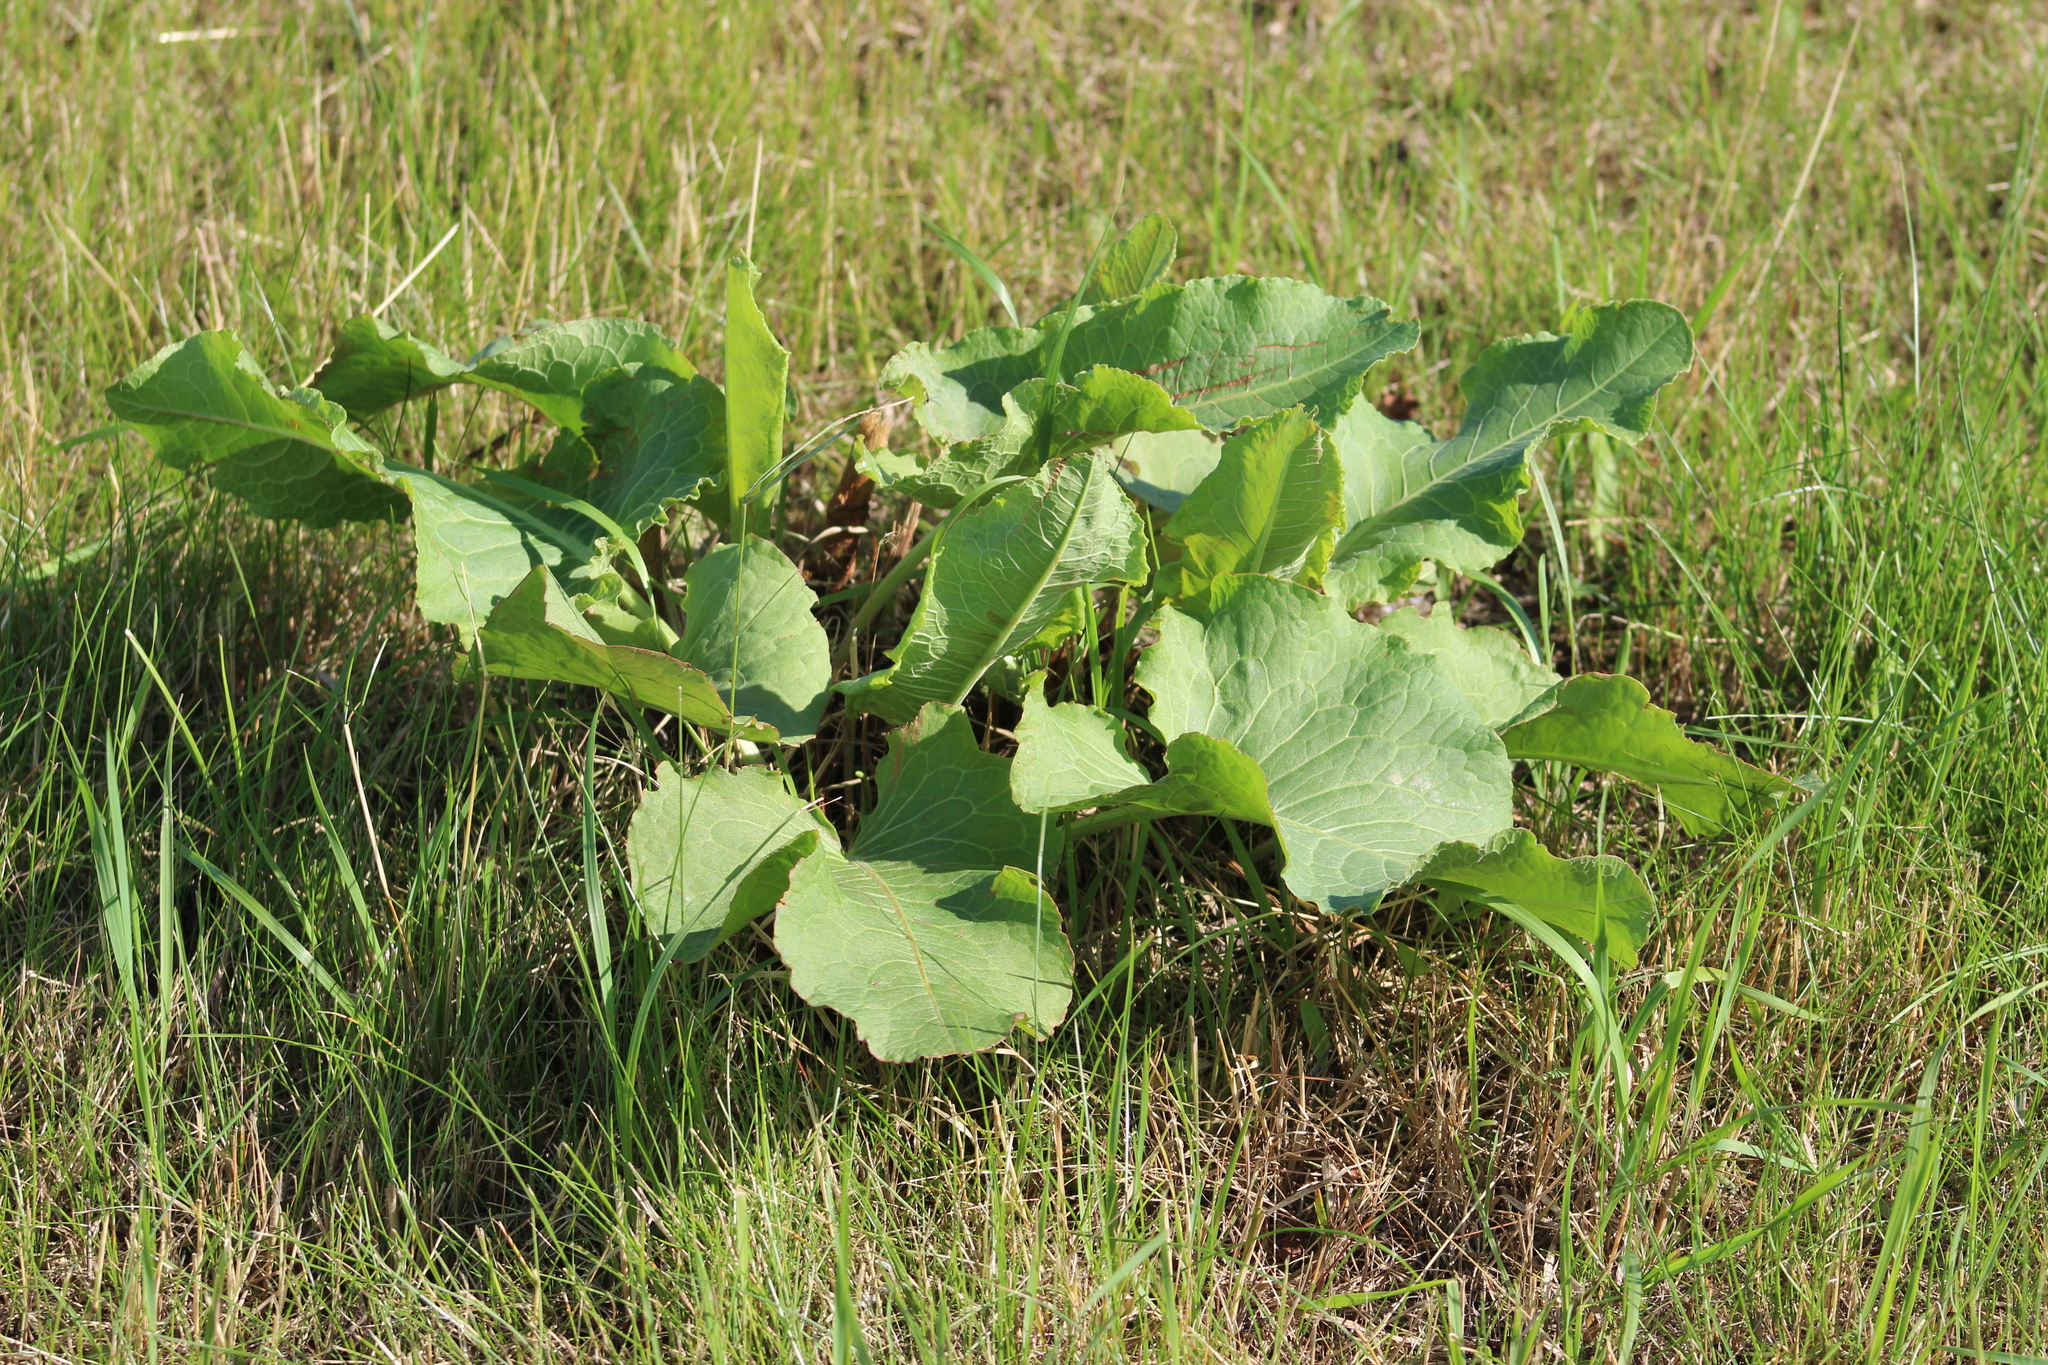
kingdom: Plantae
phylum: Tracheophyta
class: Magnoliopsida
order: Caryophyllales
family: Polygonaceae
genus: Rumex
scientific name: Rumex confertus
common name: Russian dock
